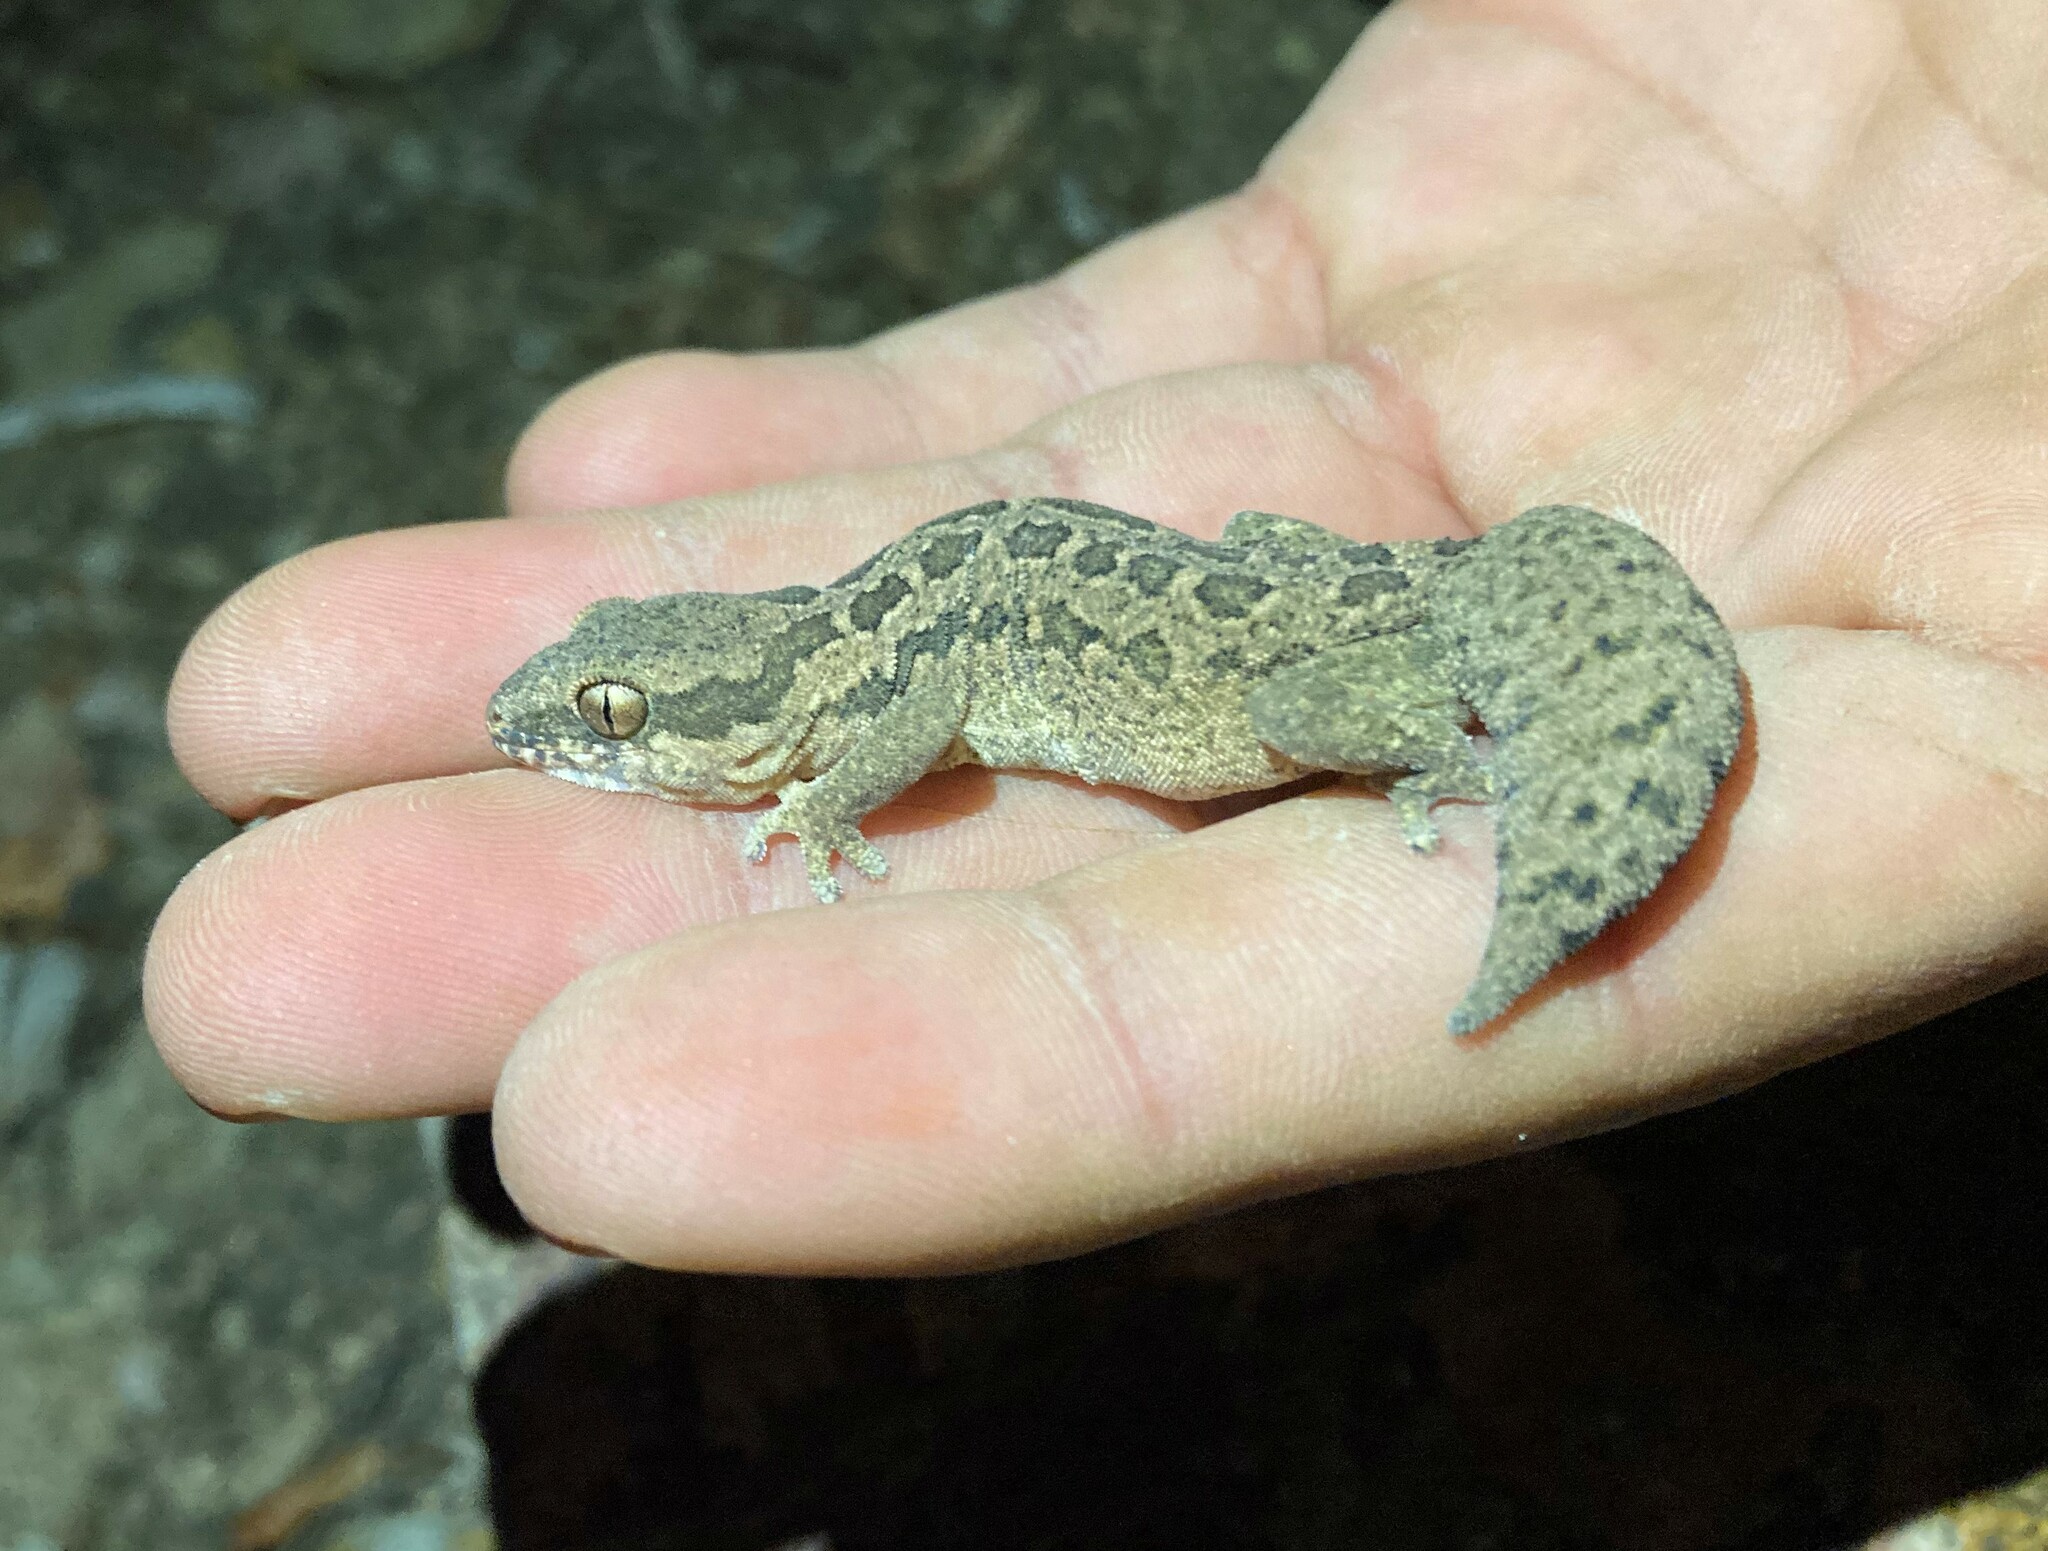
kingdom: Animalia
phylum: Chordata
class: Squamata
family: Gekkonidae
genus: Pachydactylus
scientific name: Pachydactylus maculatus
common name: Spotted thick-toed gecko
